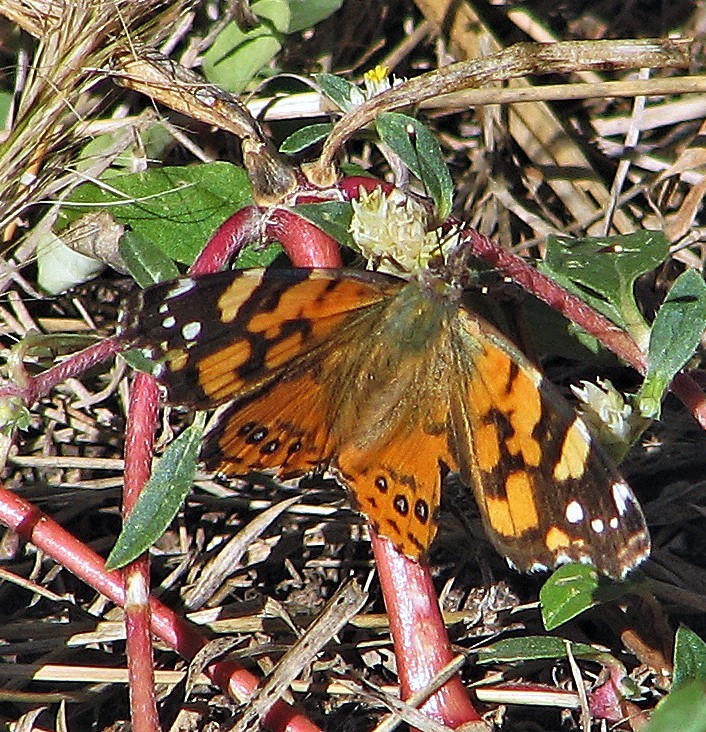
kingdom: Animalia
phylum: Arthropoda
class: Insecta
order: Lepidoptera
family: Nymphalidae
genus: Vanessa
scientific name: Vanessa carye
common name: Subtropical lady
